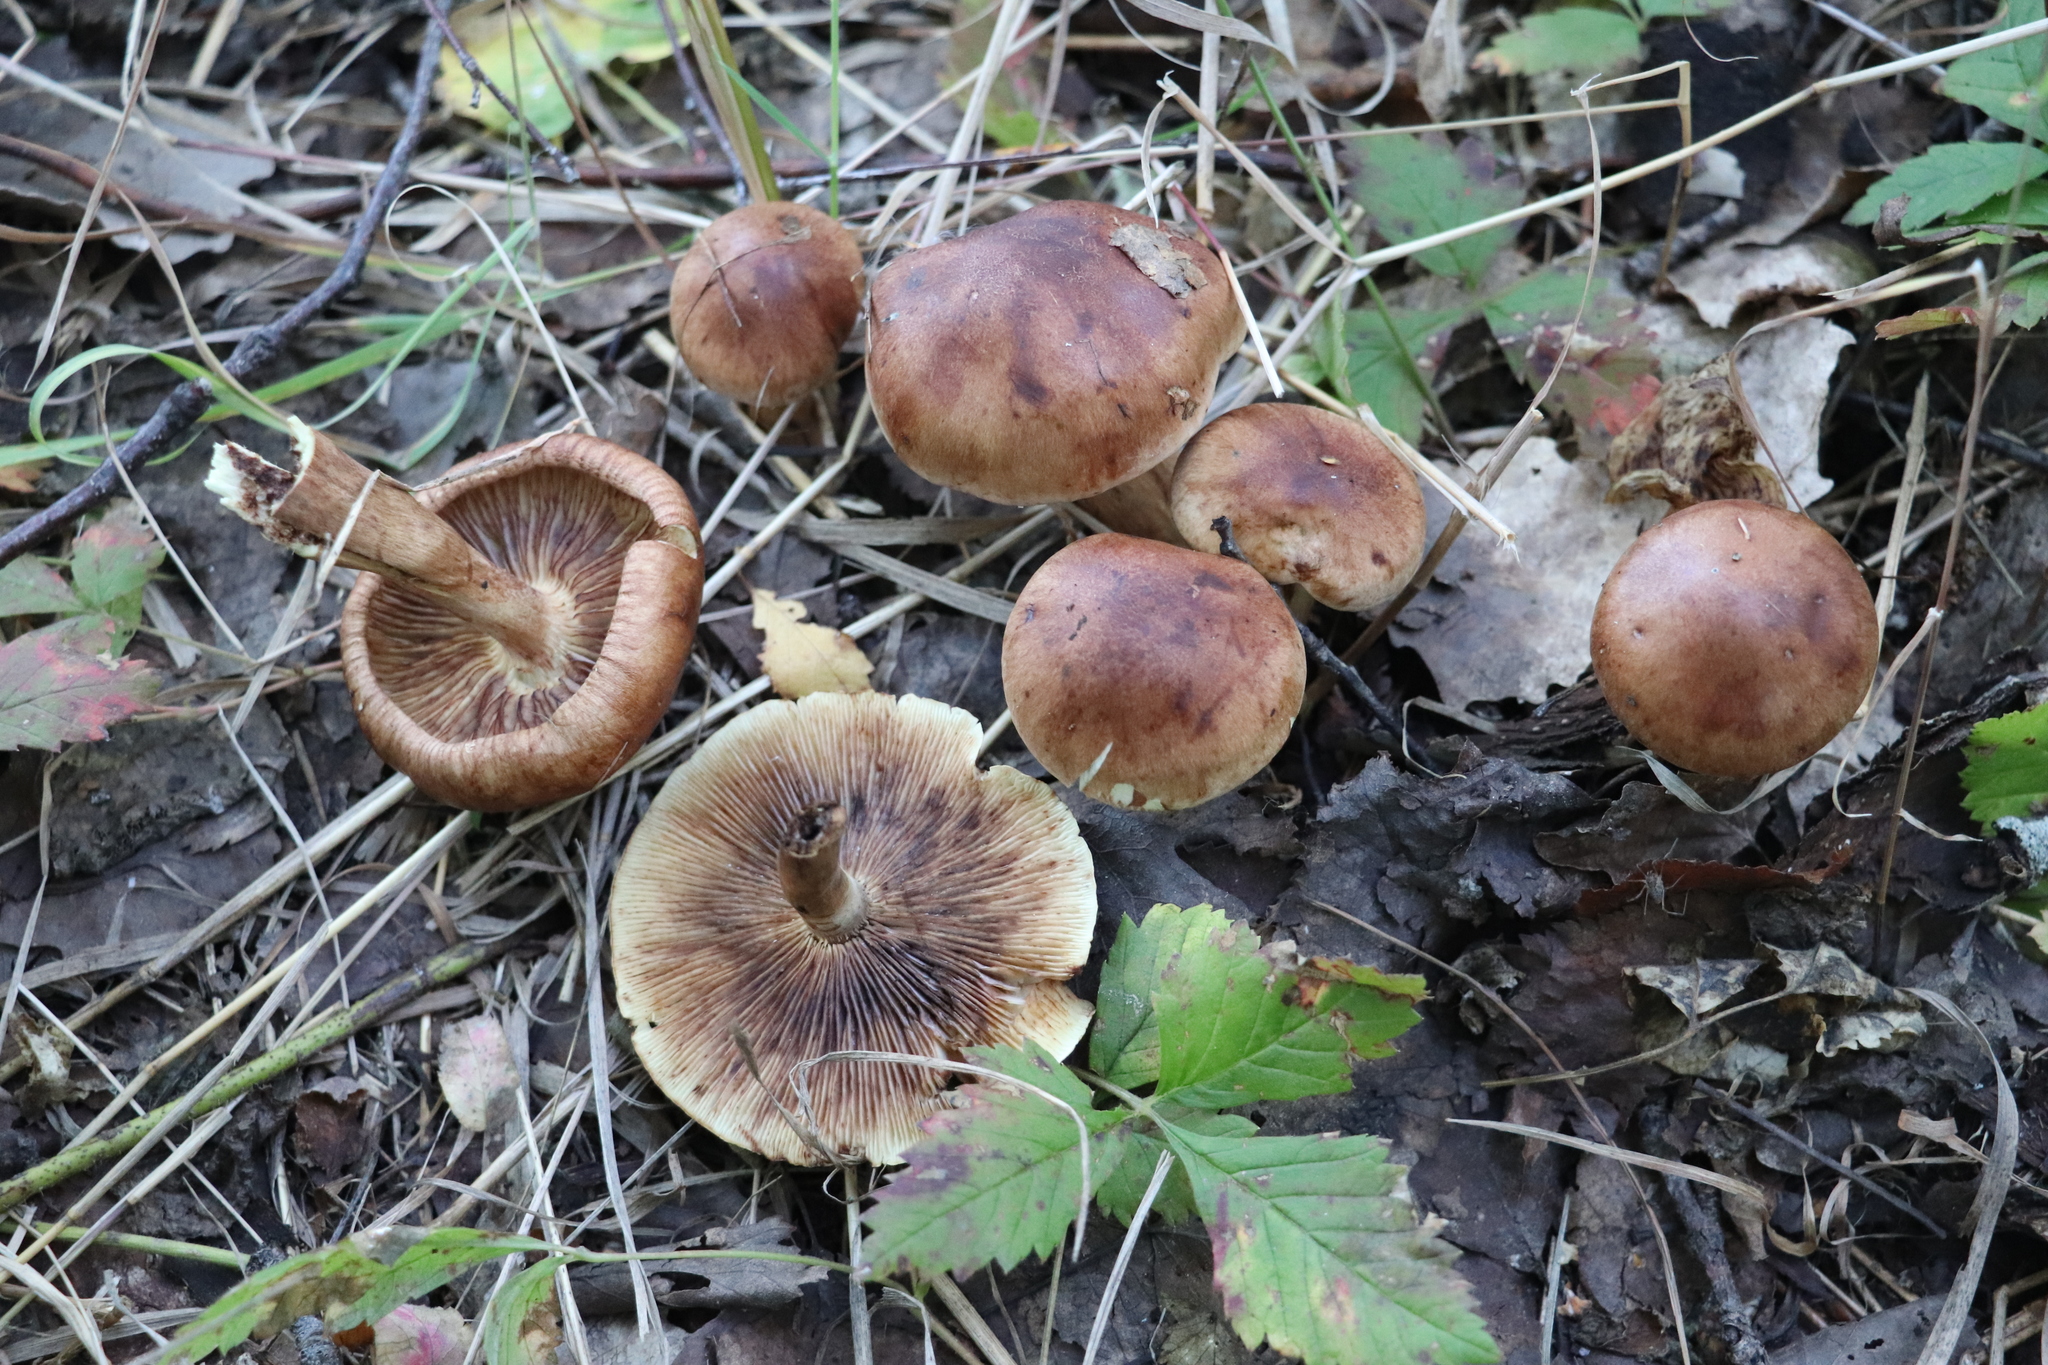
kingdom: Fungi
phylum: Basidiomycota
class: Agaricomycetes
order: Agaricales
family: Tricholomataceae
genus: Tricholoma
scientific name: Tricholoma fulvum
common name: Birch knight
